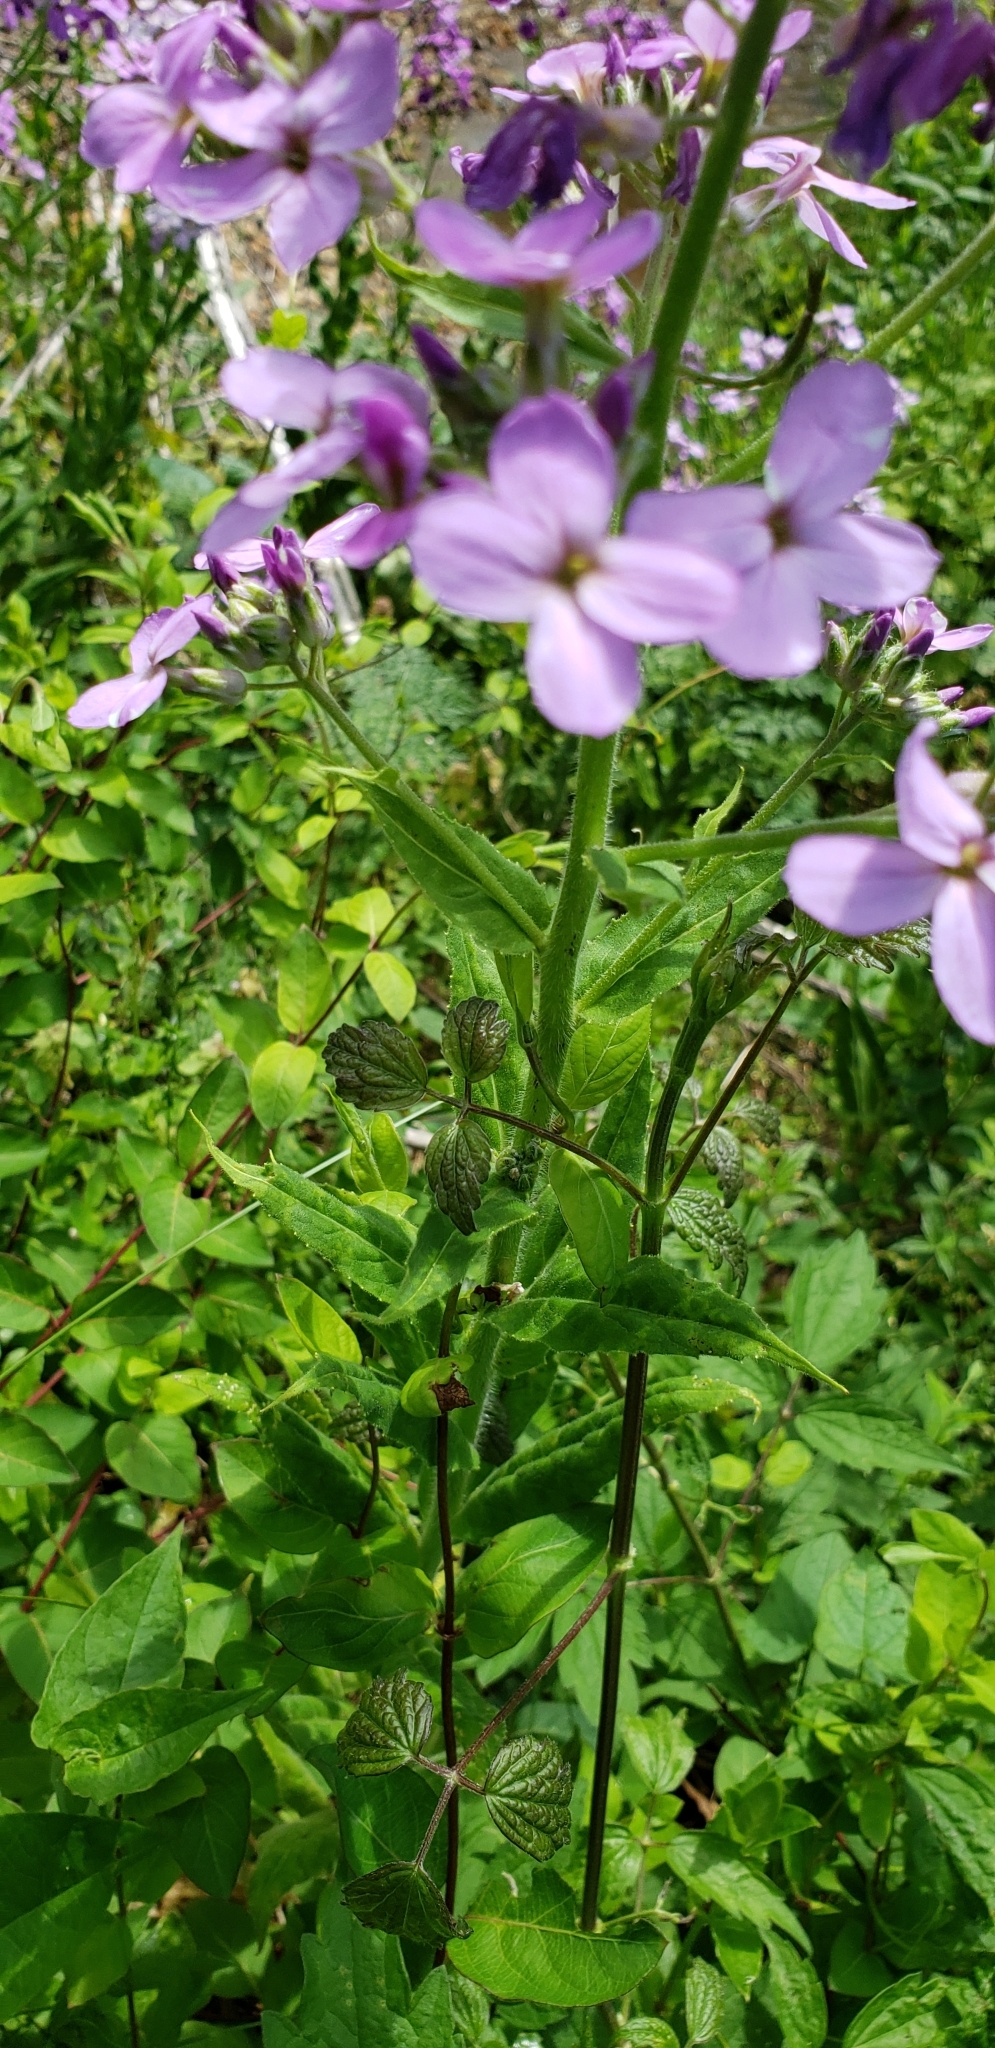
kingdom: Plantae
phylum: Tracheophyta
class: Magnoliopsida
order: Brassicales
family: Brassicaceae
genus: Hesperis
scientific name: Hesperis matronalis
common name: Dame's-violet
